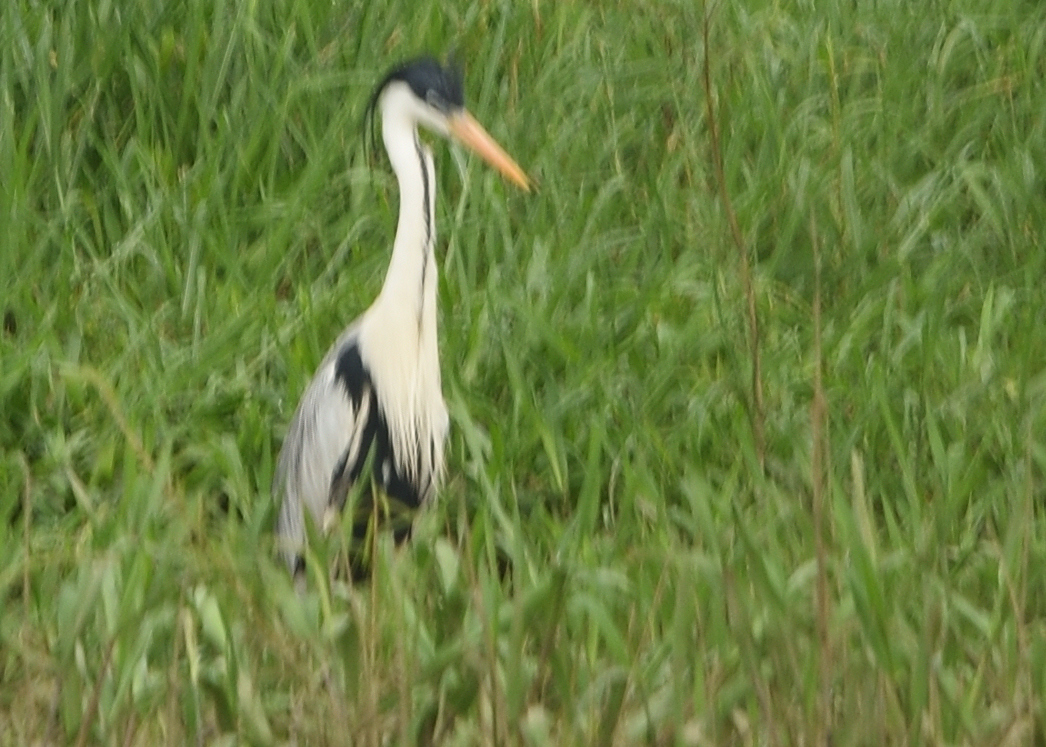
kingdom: Animalia
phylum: Chordata
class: Aves
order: Pelecaniformes
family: Ardeidae
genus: Ardea
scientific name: Ardea cocoi
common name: Cocoi heron
